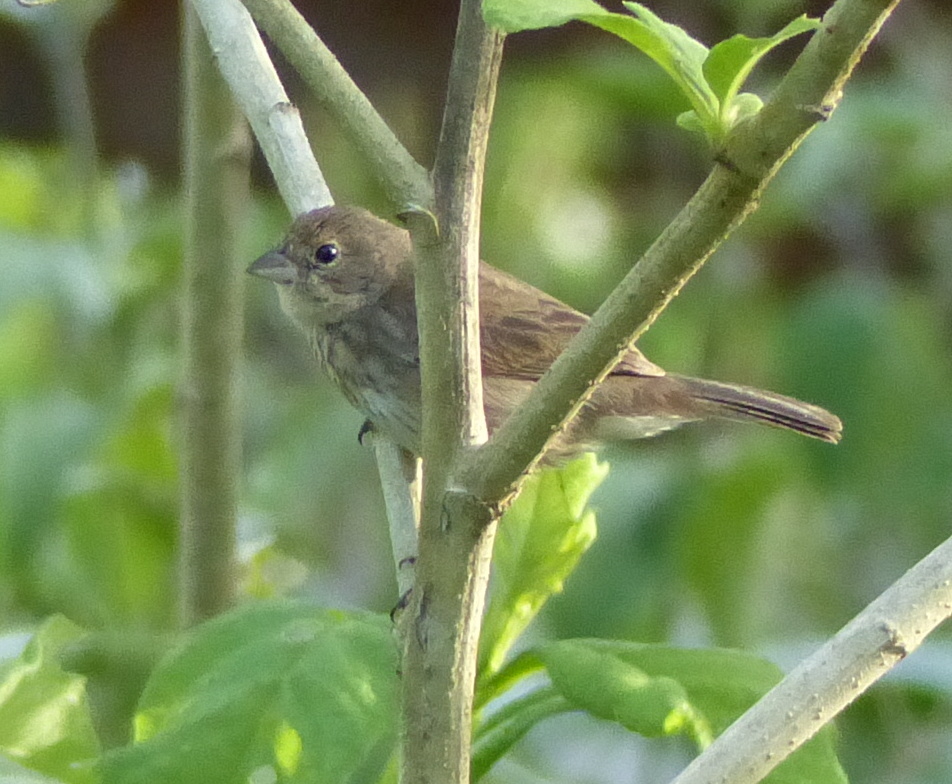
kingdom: Animalia
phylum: Chordata
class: Aves
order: Passeriformes
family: Thraupidae
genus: Volatinia
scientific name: Volatinia jacarina
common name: Blue-black grassquit
